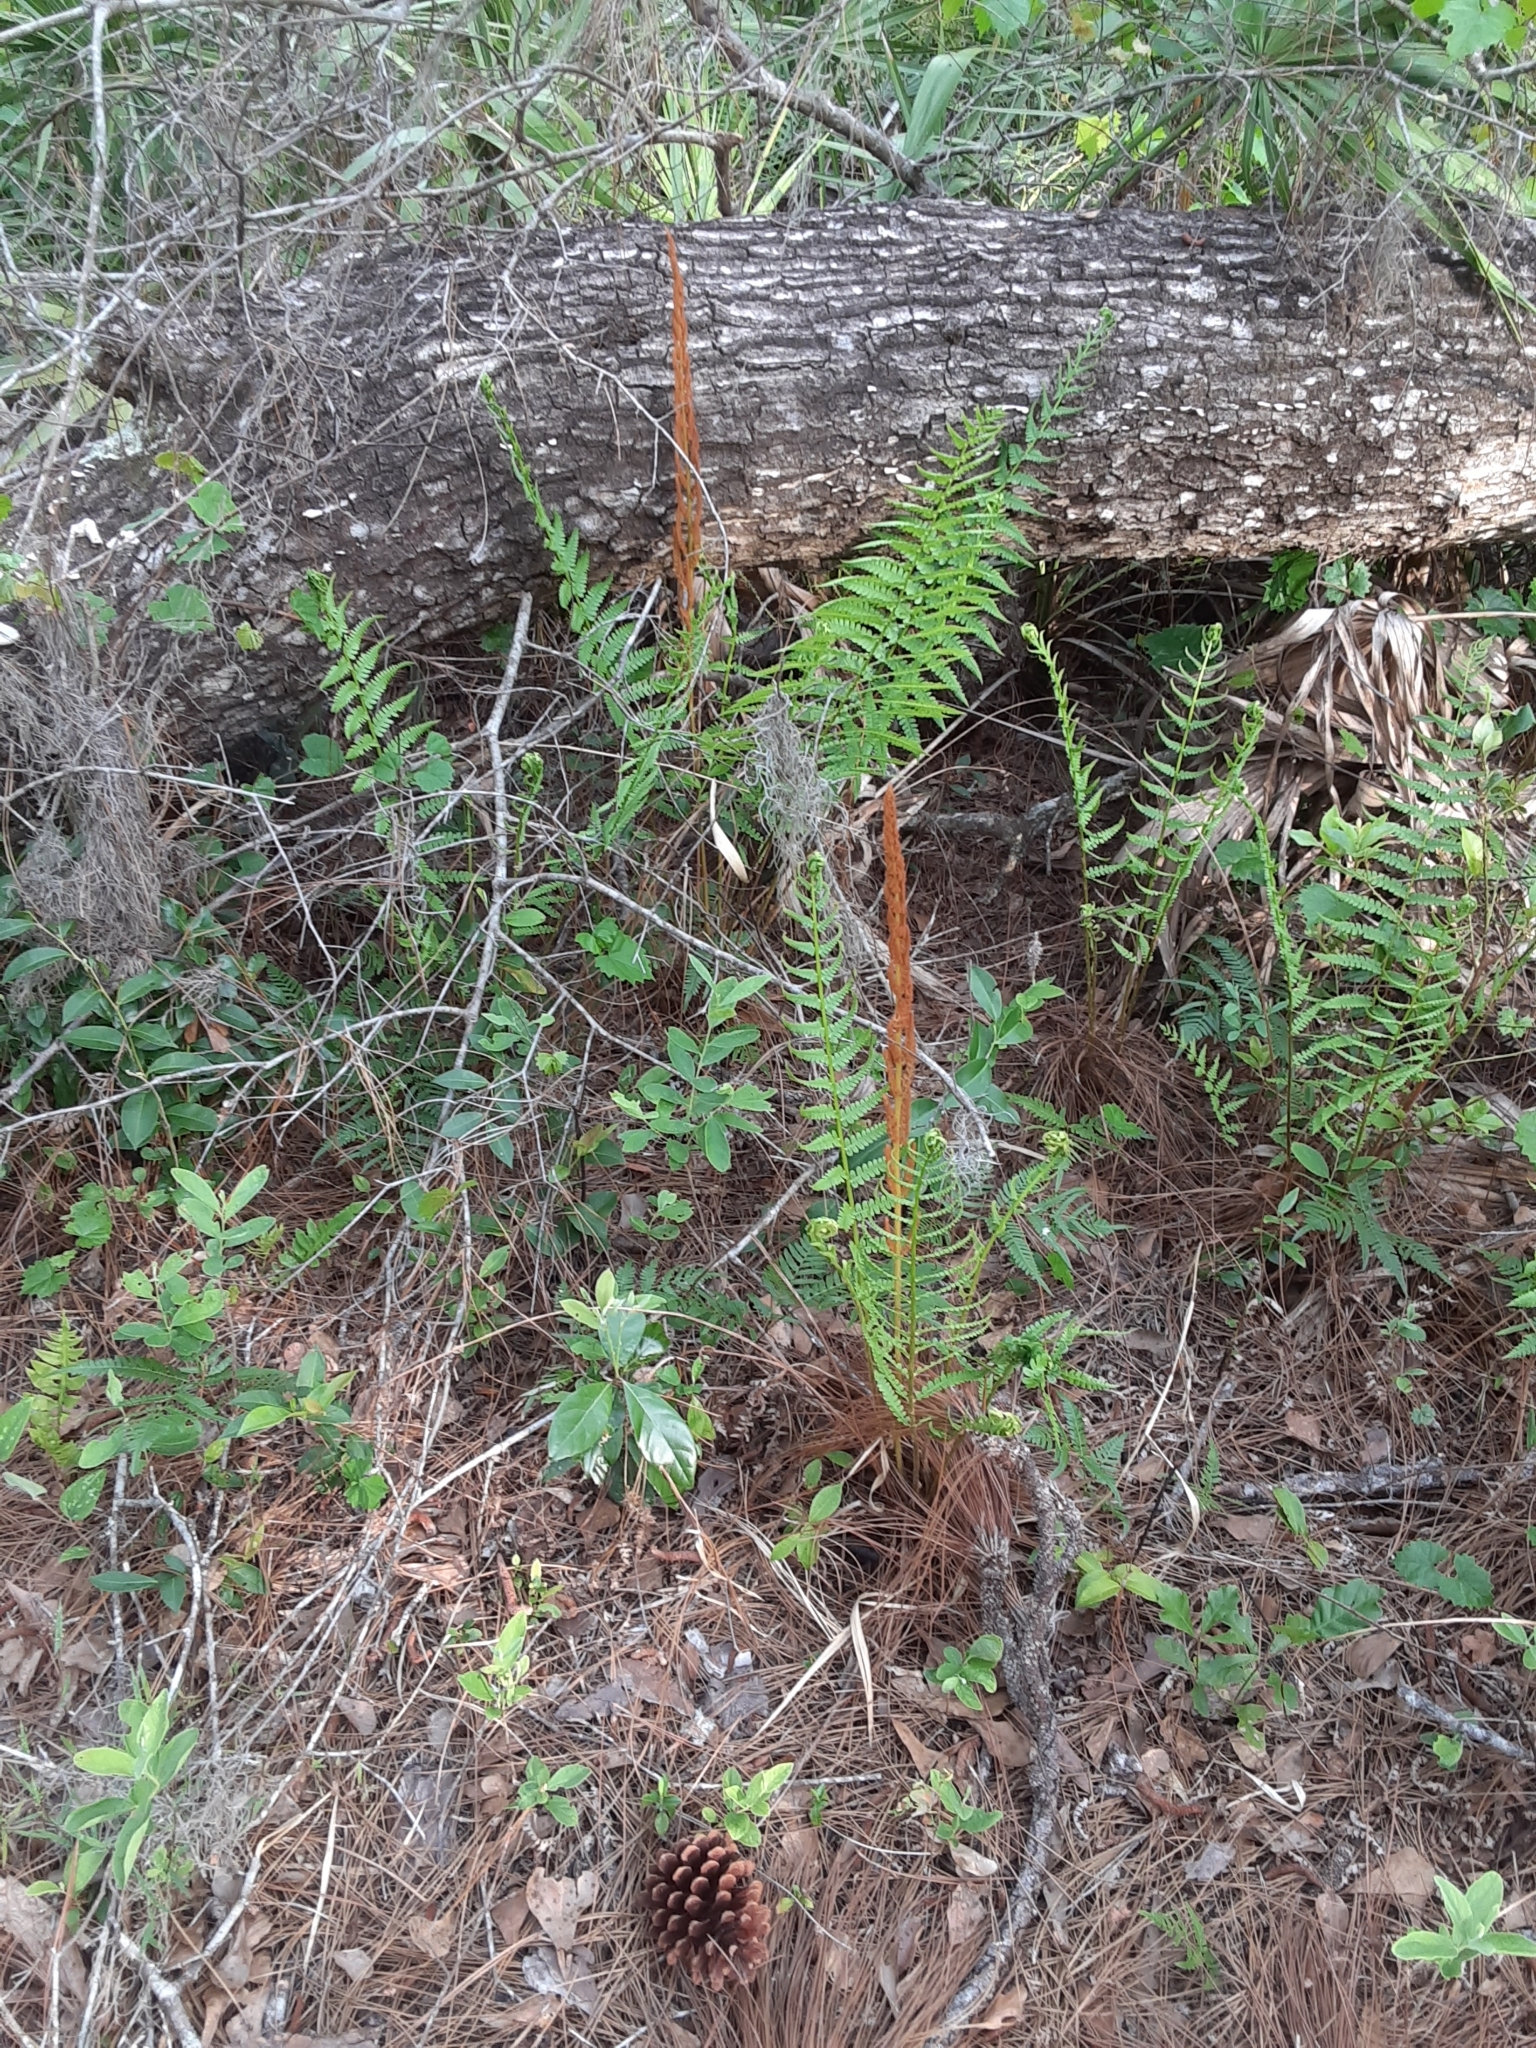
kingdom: Plantae
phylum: Tracheophyta
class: Polypodiopsida
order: Osmundales
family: Osmundaceae
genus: Osmundastrum
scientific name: Osmundastrum cinnamomeum
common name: Cinnamon fern
